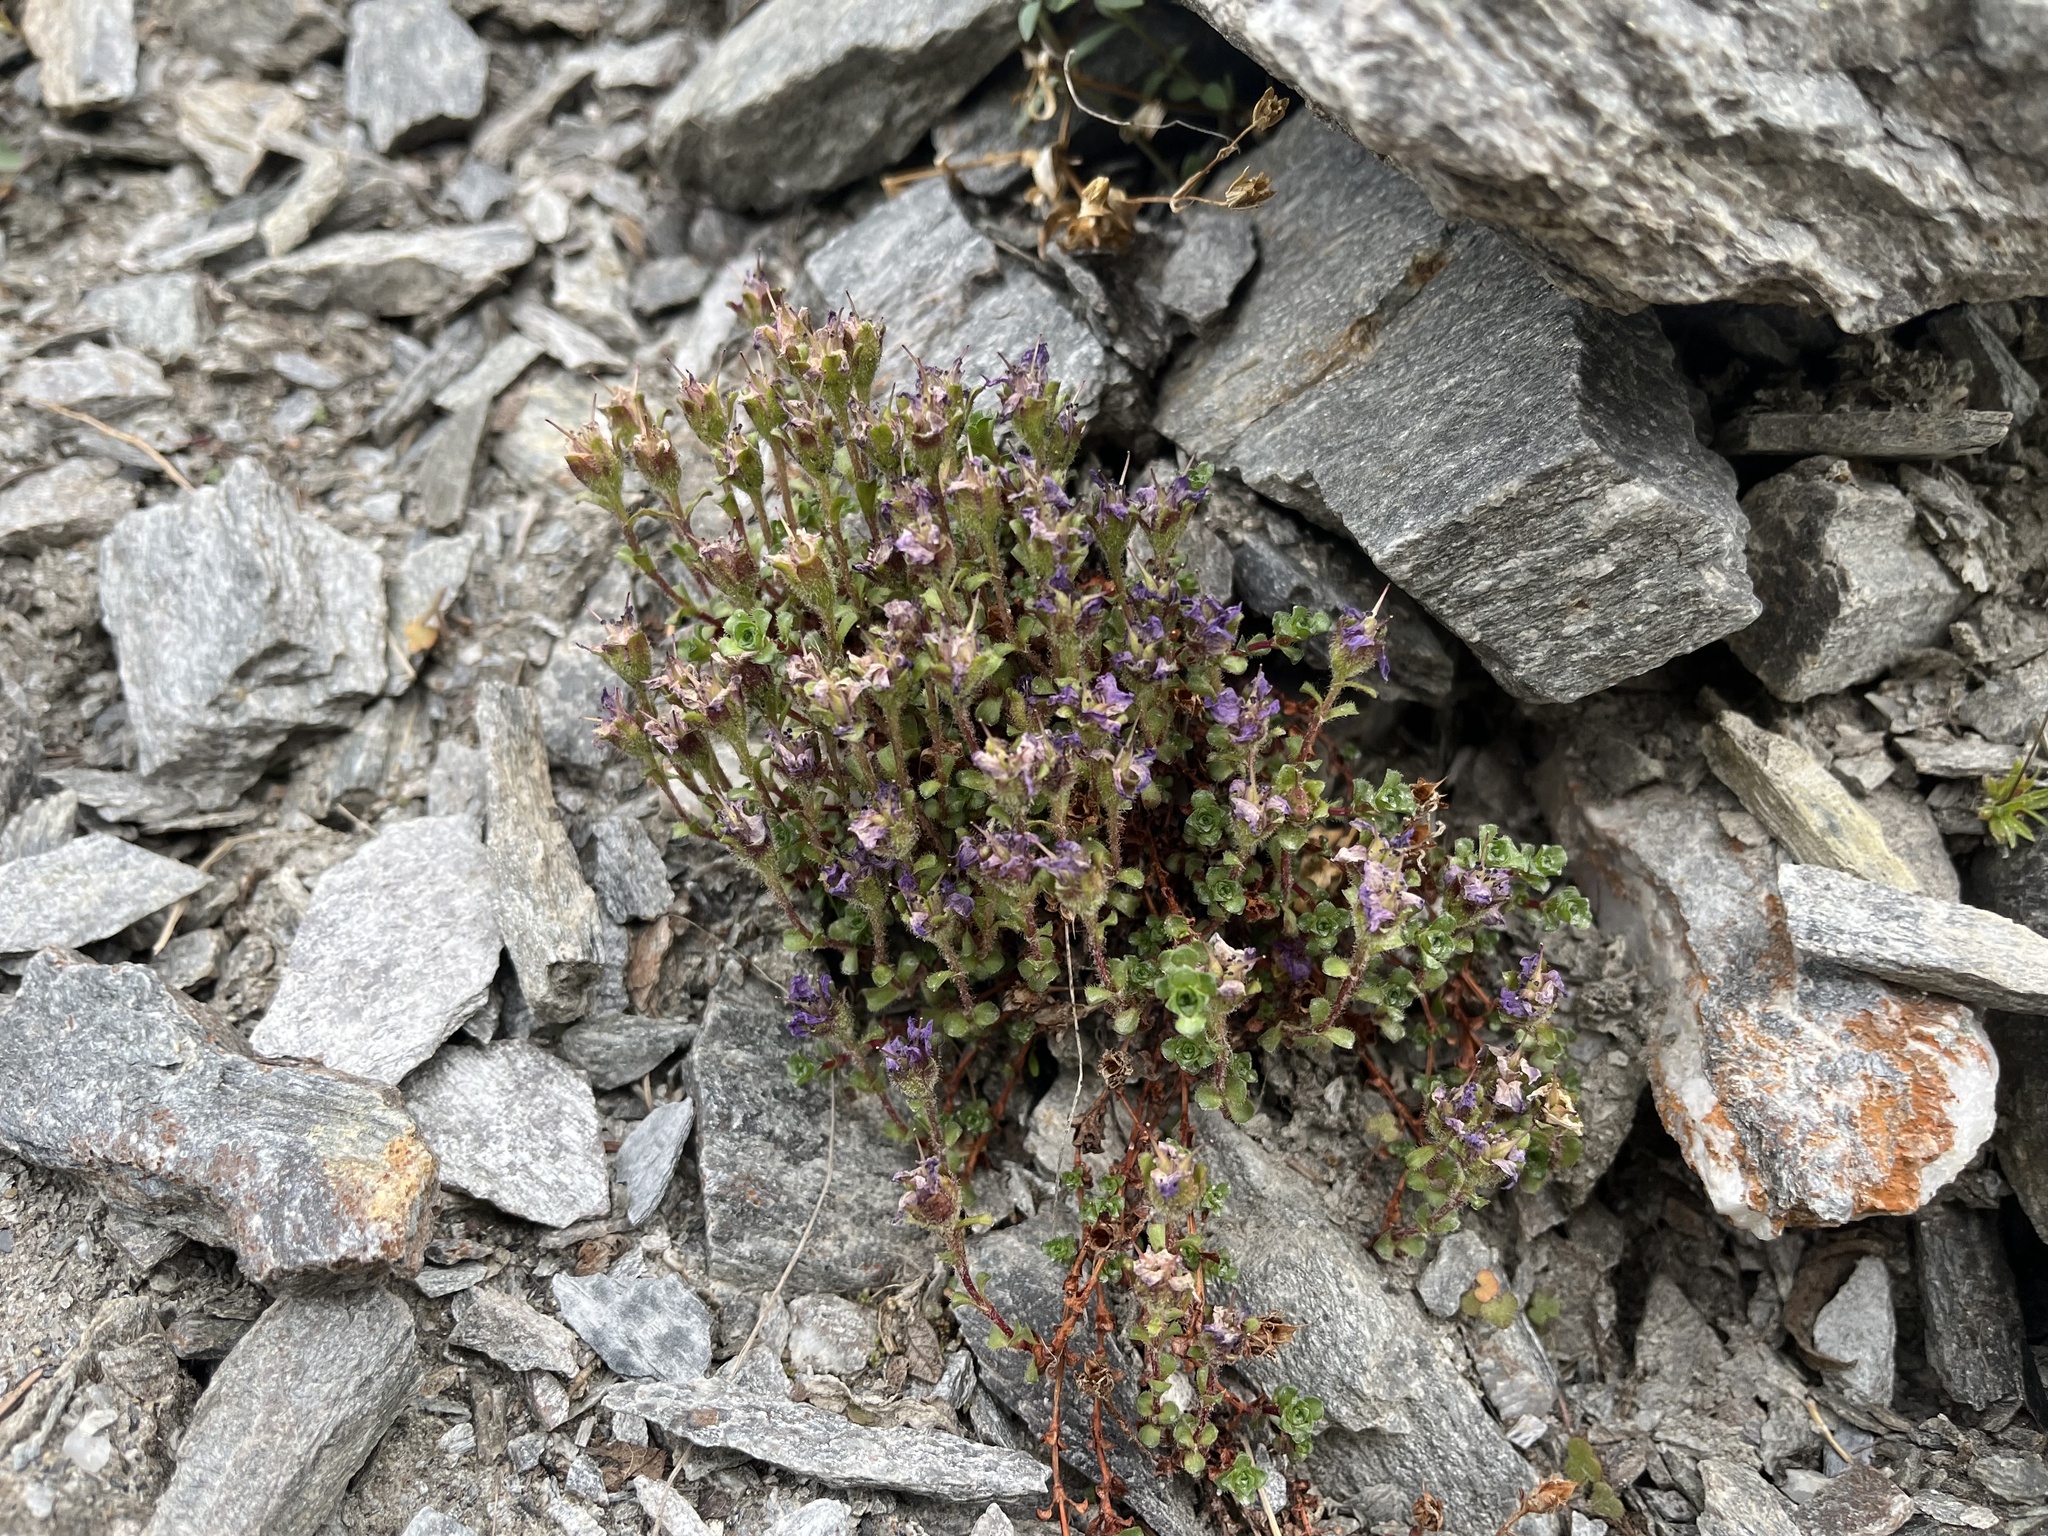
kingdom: Plantae
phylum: Tracheophyta
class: Magnoliopsida
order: Saxifragales
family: Saxifragaceae
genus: Saxifraga
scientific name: Saxifraga oppositifolia
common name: Purple saxifrage
